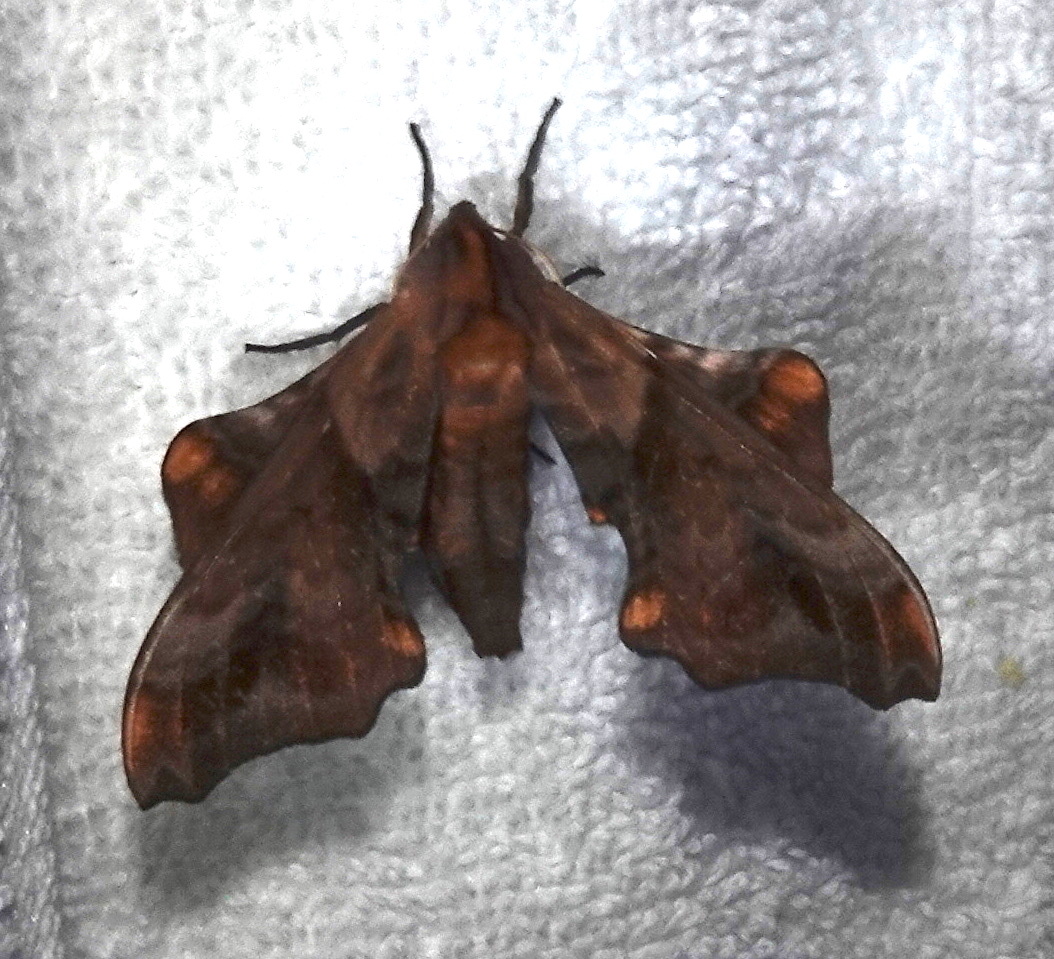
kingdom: Animalia
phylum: Arthropoda
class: Insecta
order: Lepidoptera
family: Sphingidae
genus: Paonias
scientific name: Paonias myops
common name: Small-eyed sphinx
